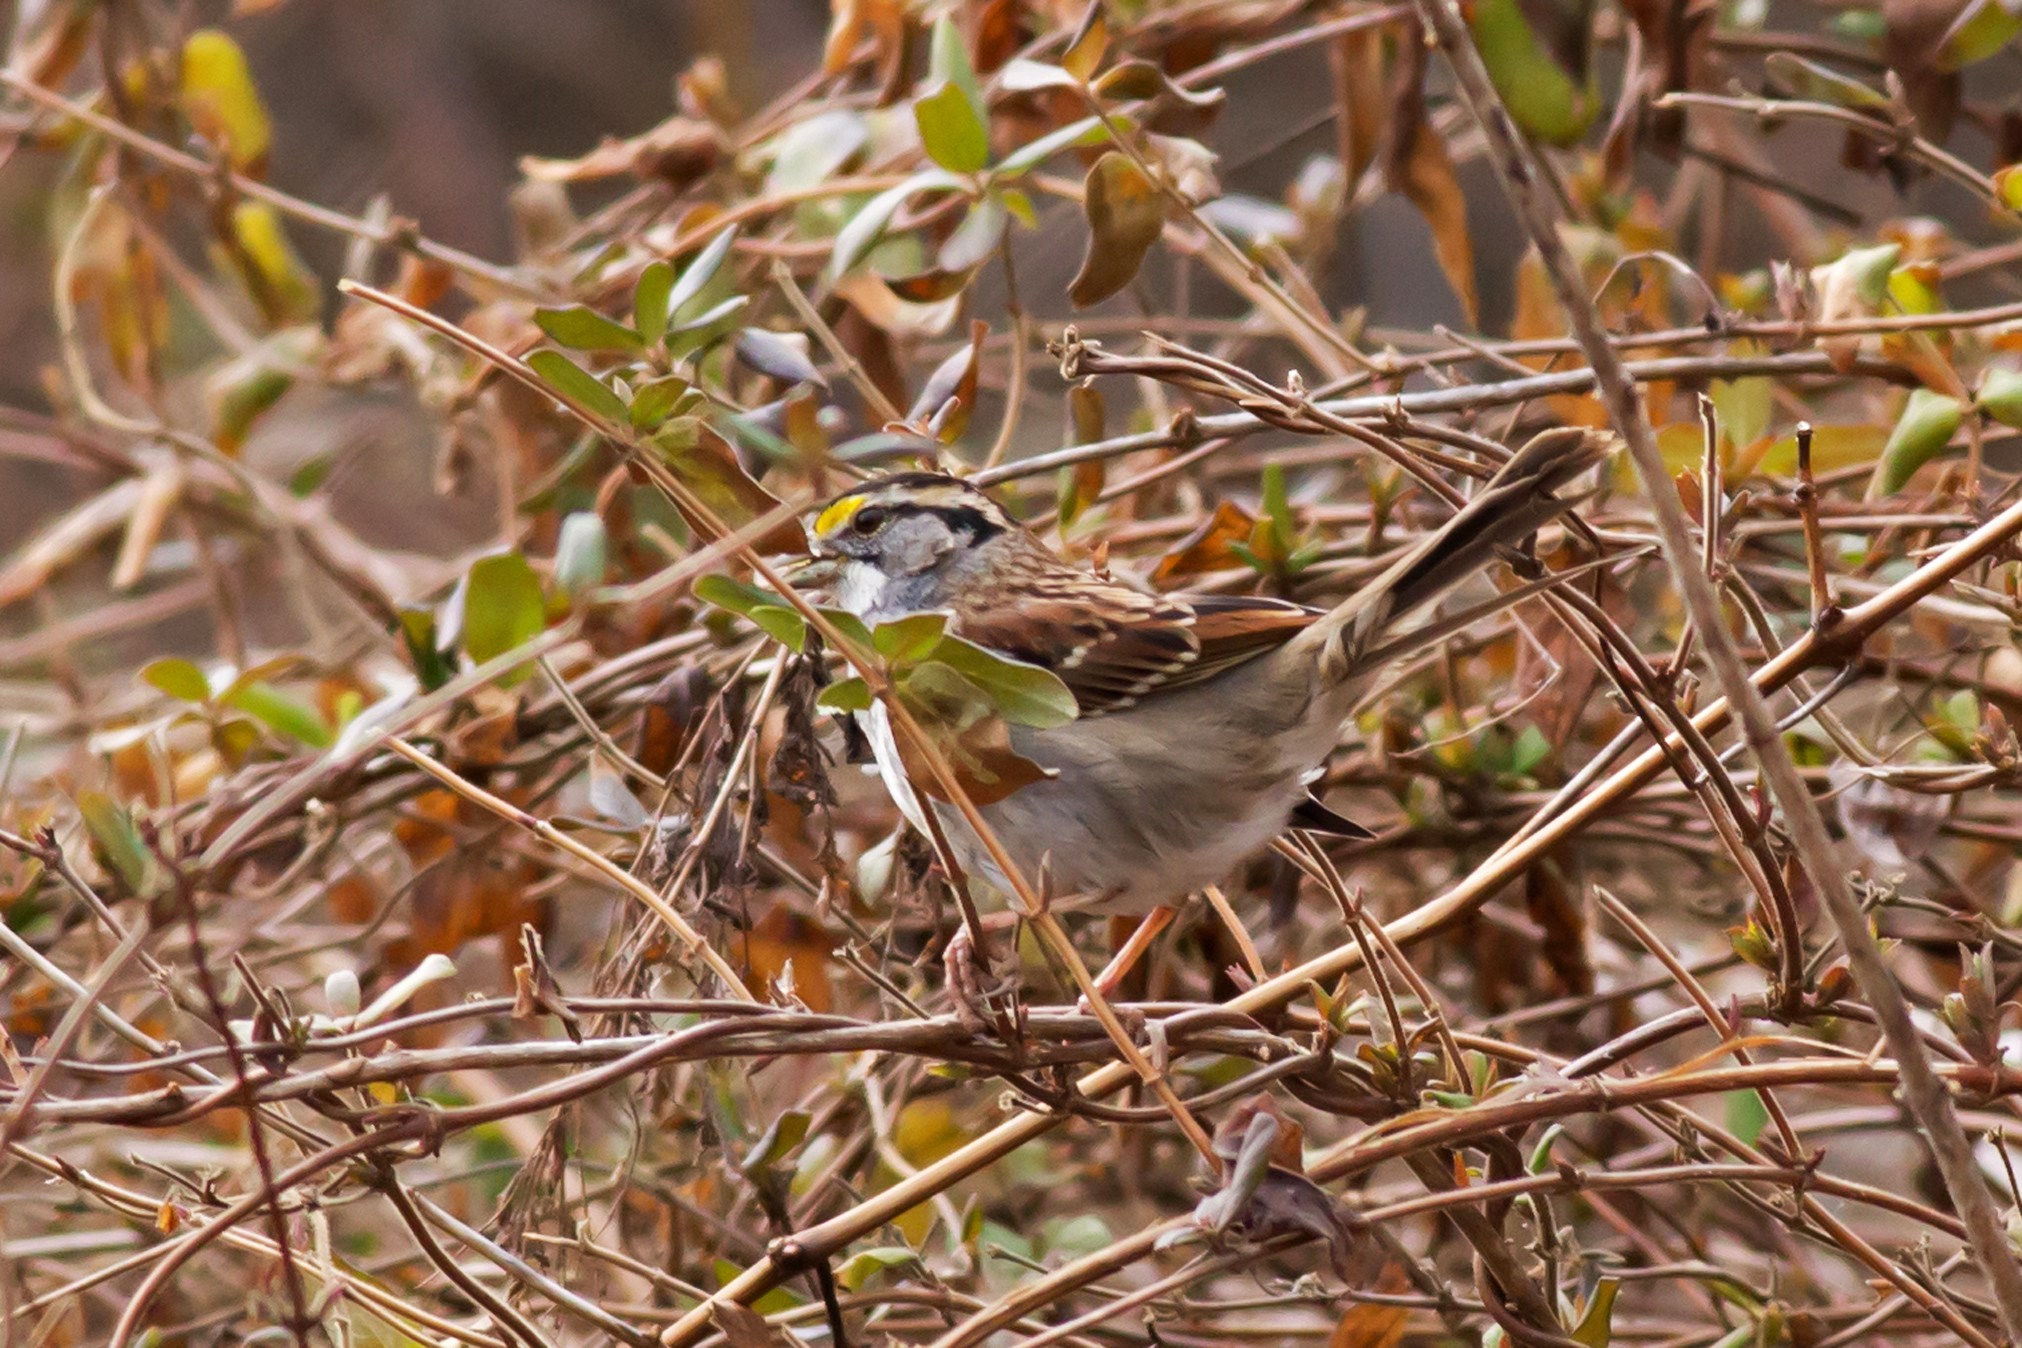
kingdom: Animalia
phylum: Chordata
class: Aves
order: Passeriformes
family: Passerellidae
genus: Zonotrichia
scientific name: Zonotrichia albicollis
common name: White-throated sparrow
